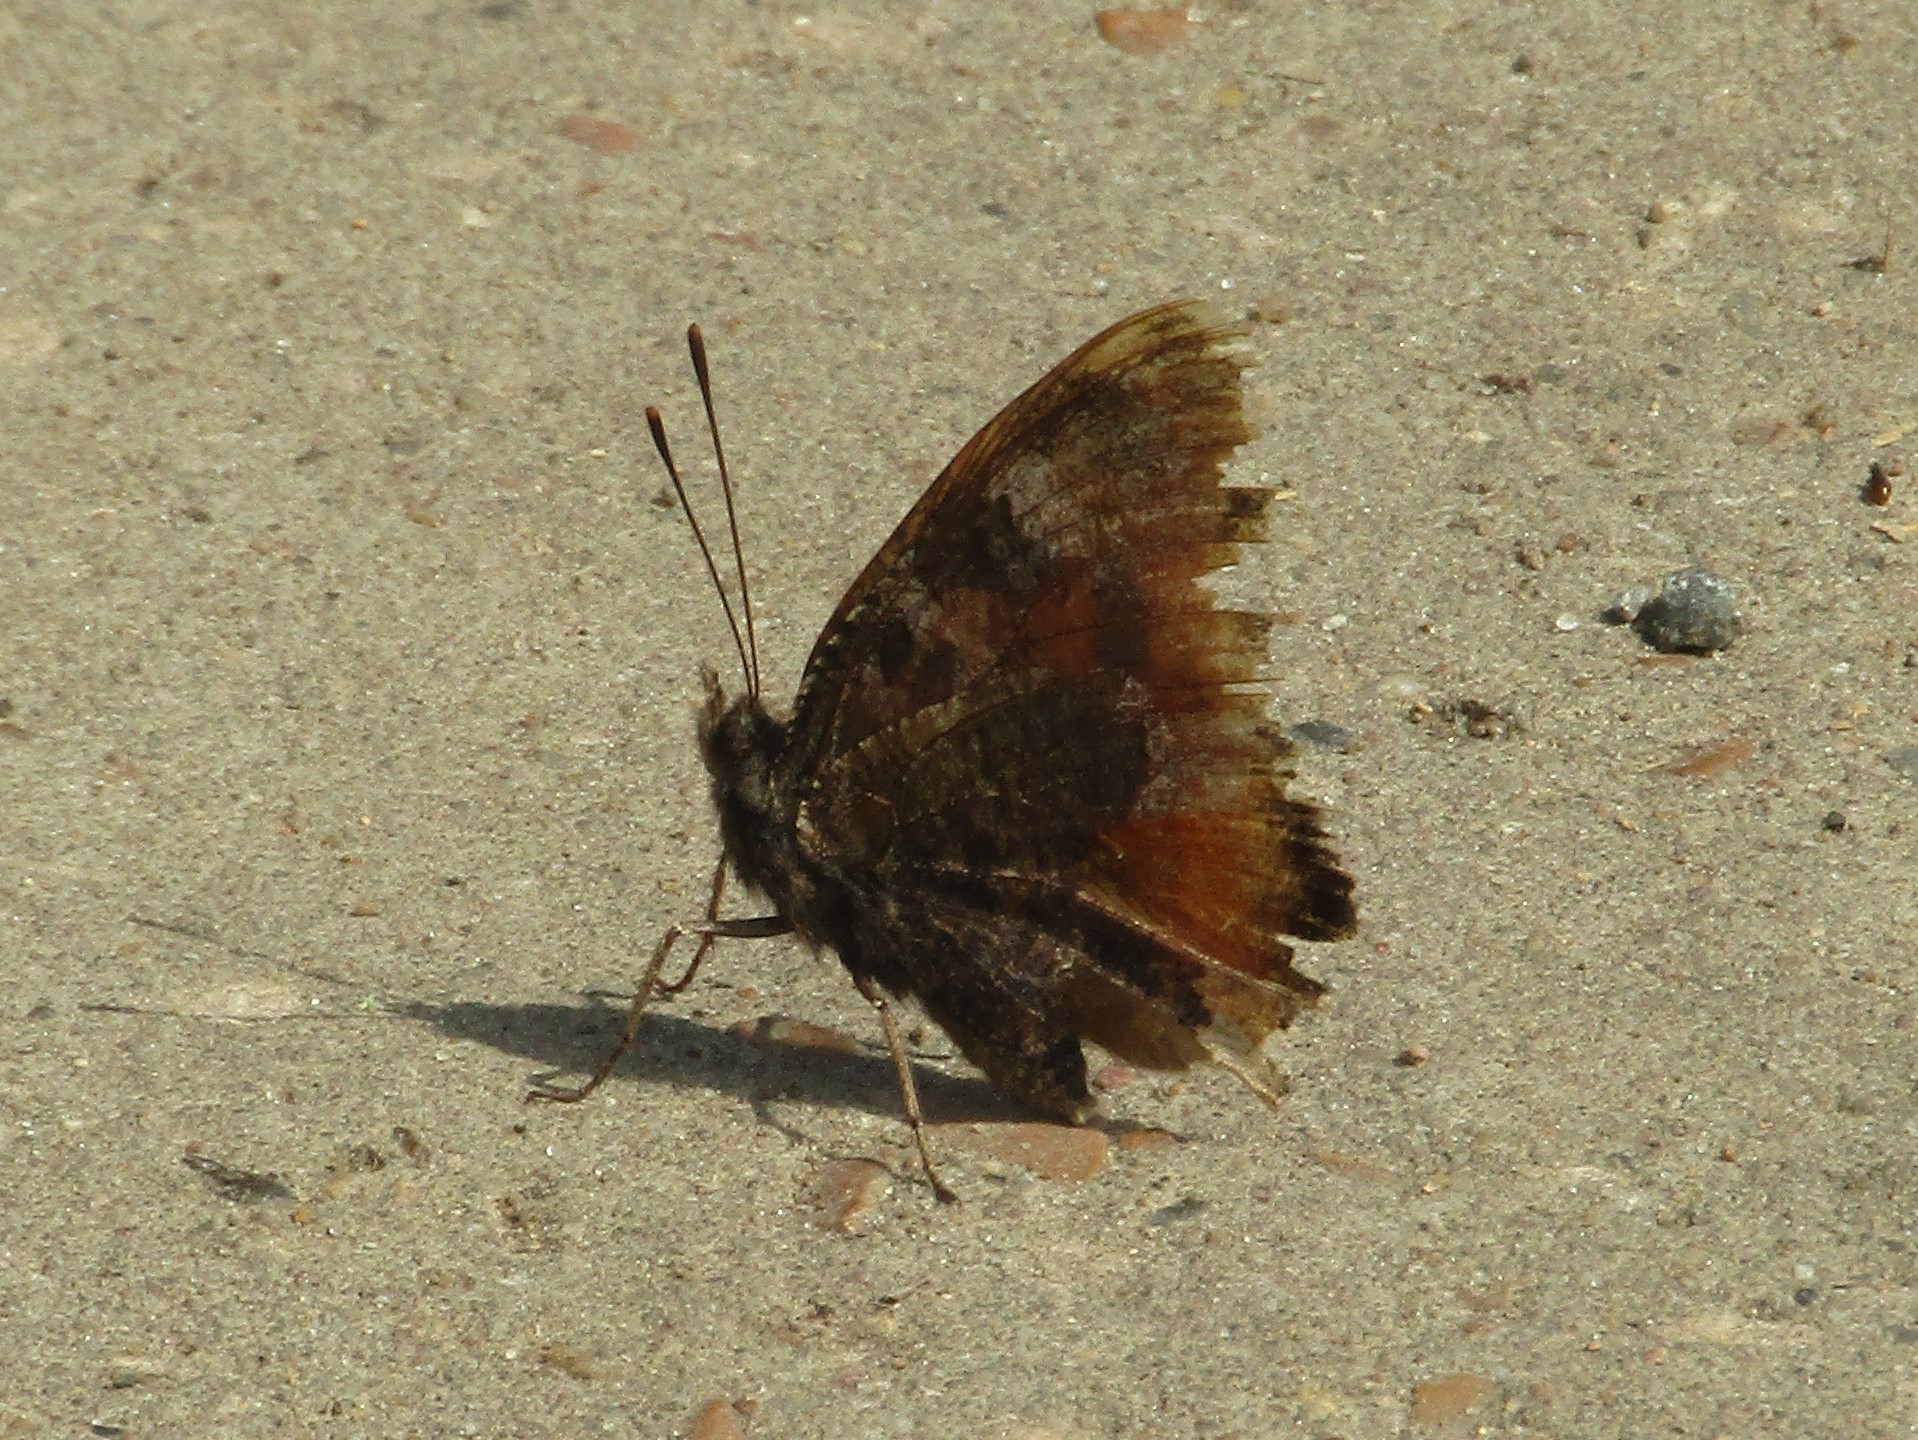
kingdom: Animalia
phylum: Arthropoda
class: Insecta
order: Lepidoptera
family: Nymphalidae
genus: Aglais
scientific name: Aglais io
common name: Peacock
